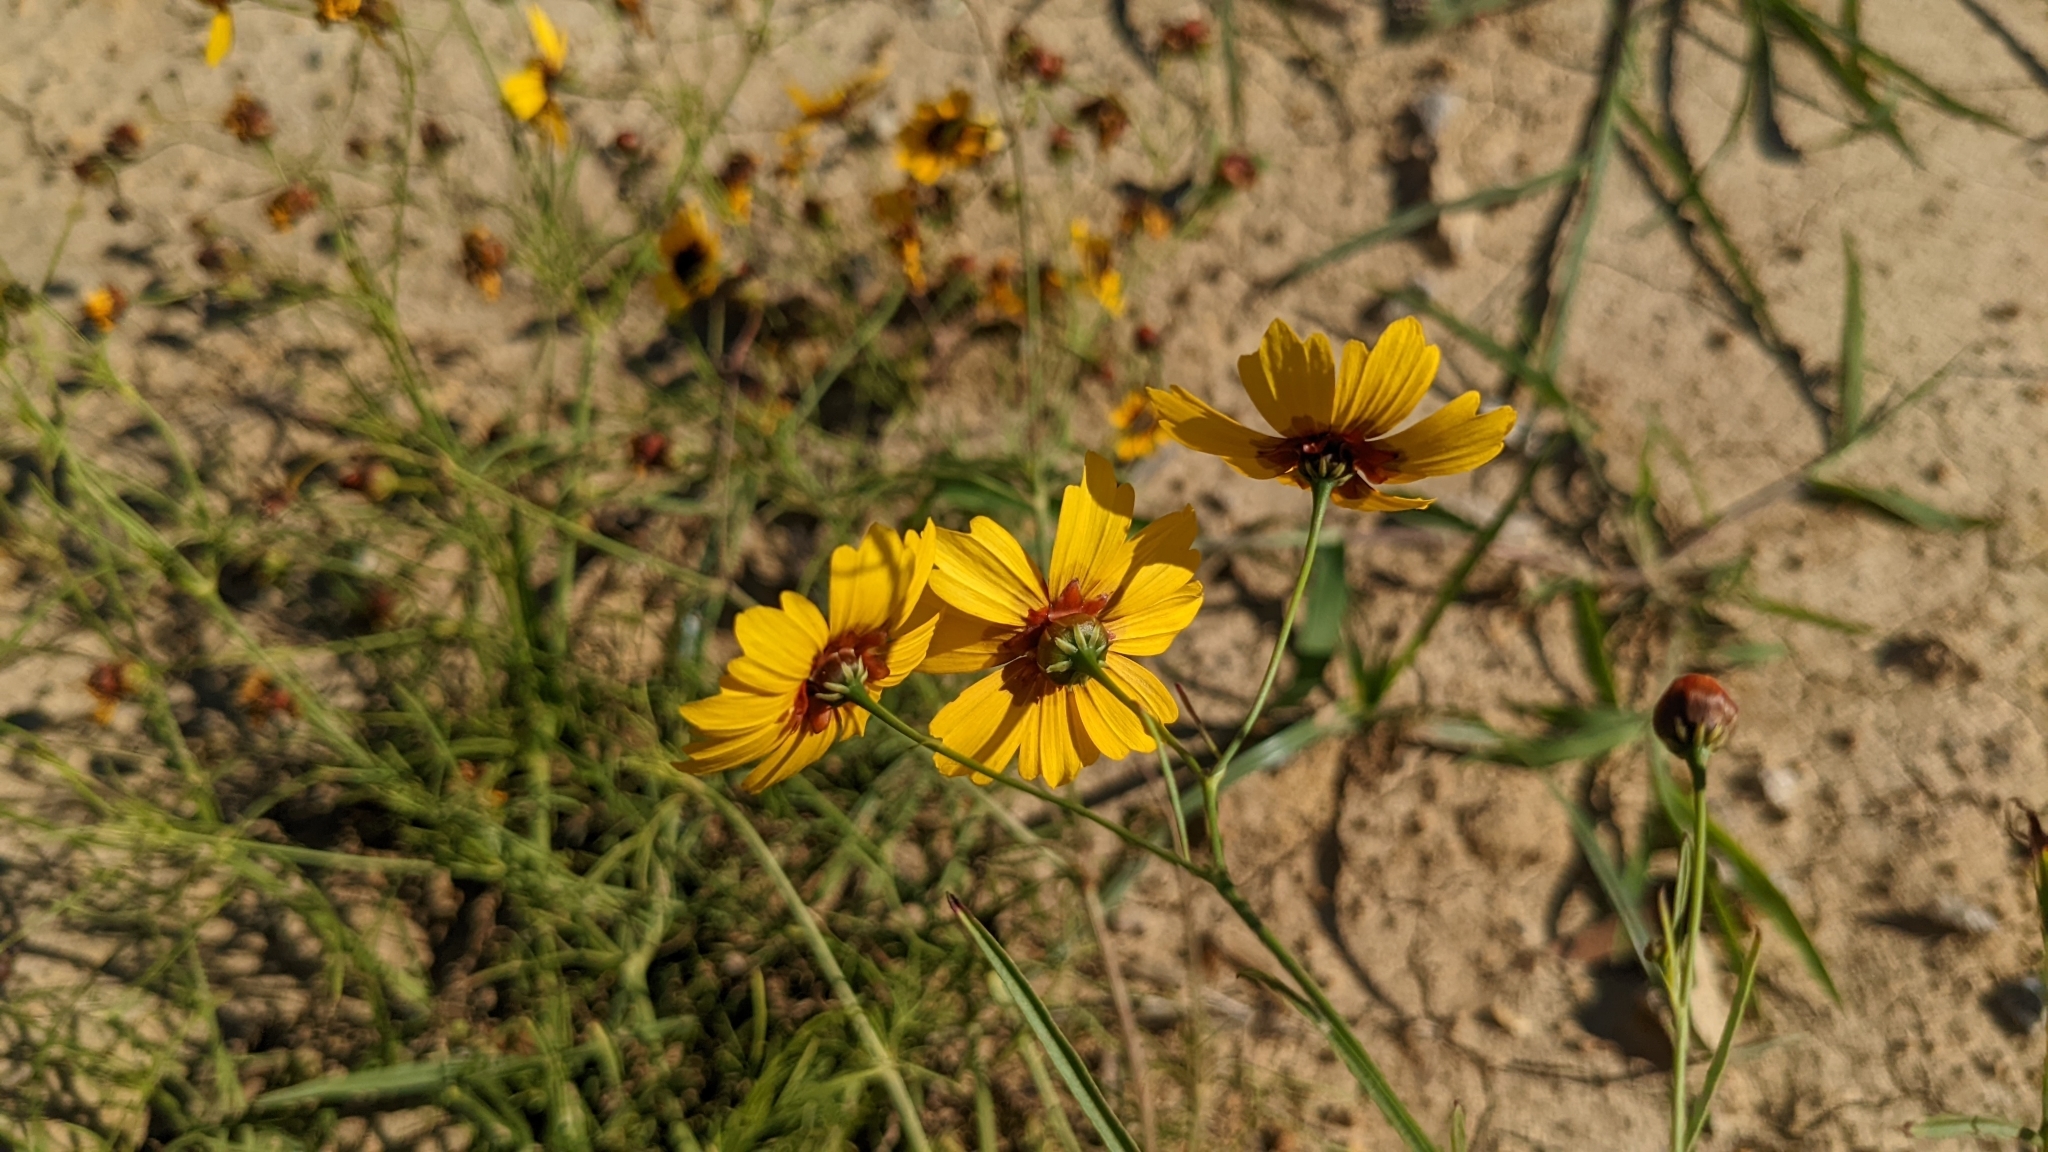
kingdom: Plantae
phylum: Tracheophyta
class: Magnoliopsida
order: Asterales
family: Asteraceae
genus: Coreopsis
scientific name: Coreopsis tinctoria
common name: Garden tickseed
